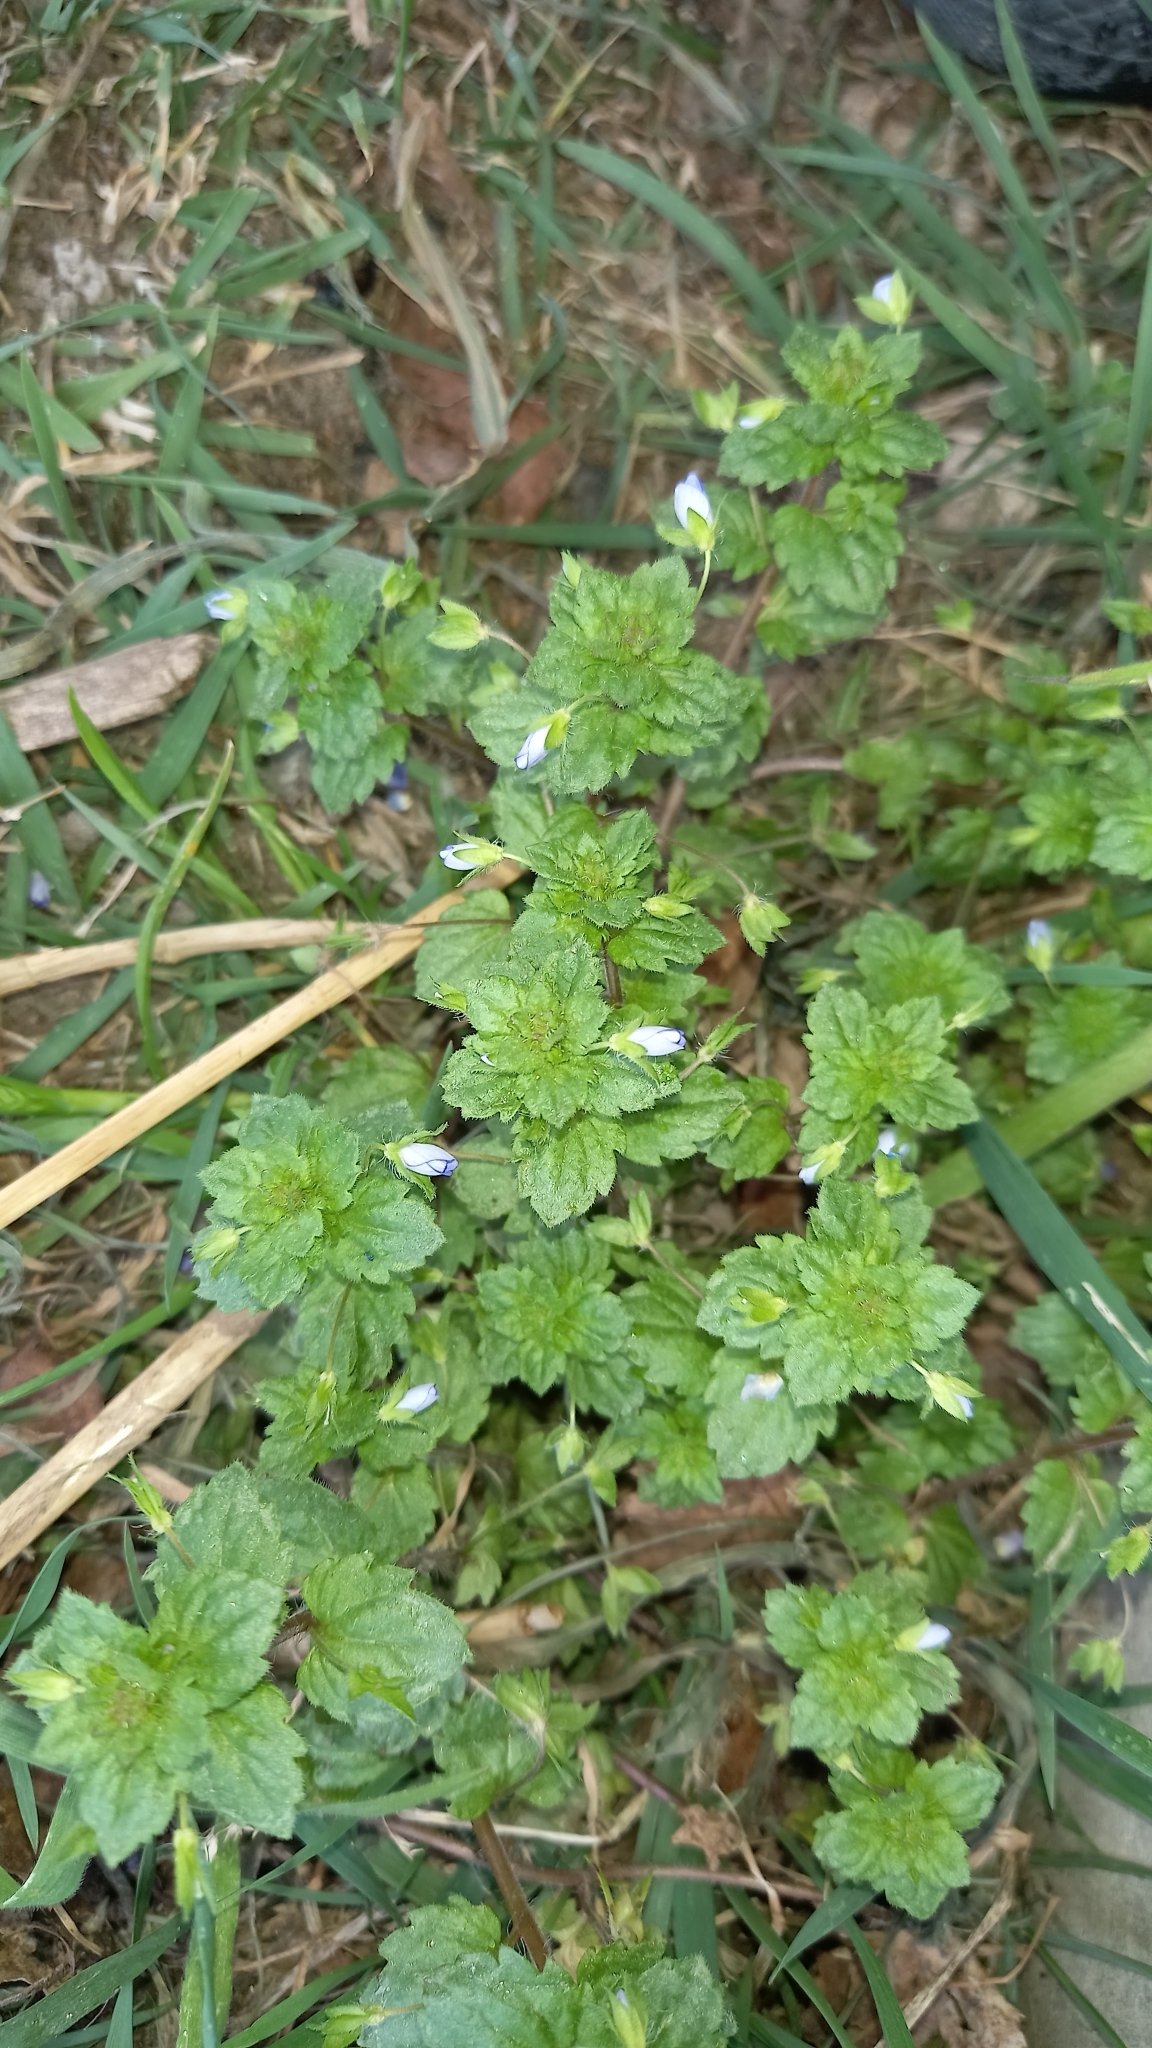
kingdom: Plantae
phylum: Tracheophyta
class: Magnoliopsida
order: Lamiales
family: Plantaginaceae
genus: Veronica
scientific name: Veronica persica
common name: Common field-speedwell
